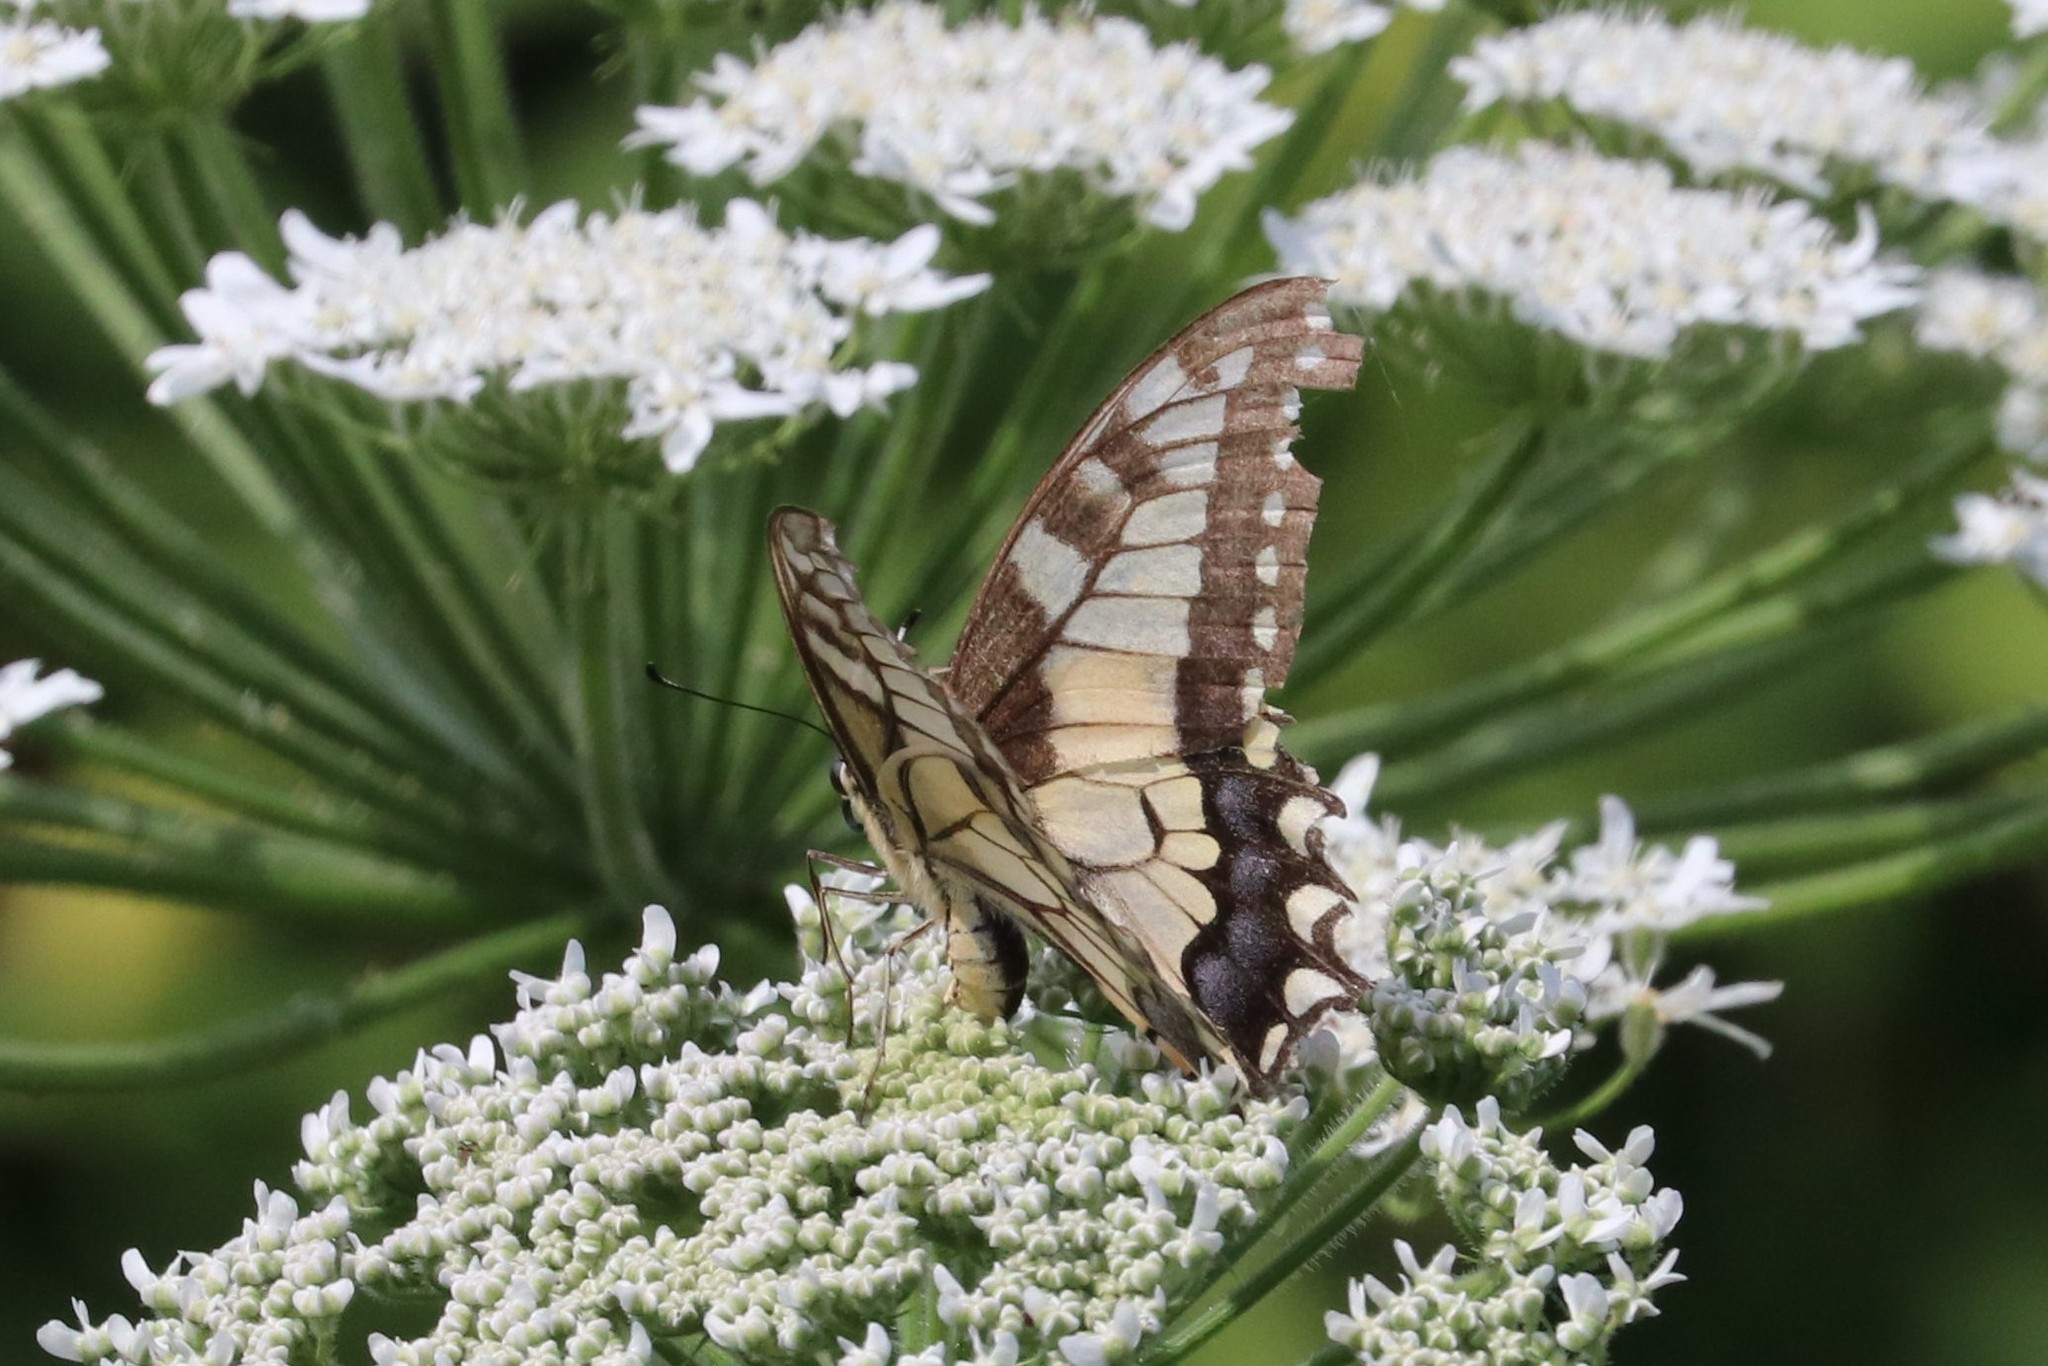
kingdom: Animalia
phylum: Arthropoda
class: Insecta
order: Lepidoptera
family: Papilionidae
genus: Papilio
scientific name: Papilio machaon
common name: Swallowtail
